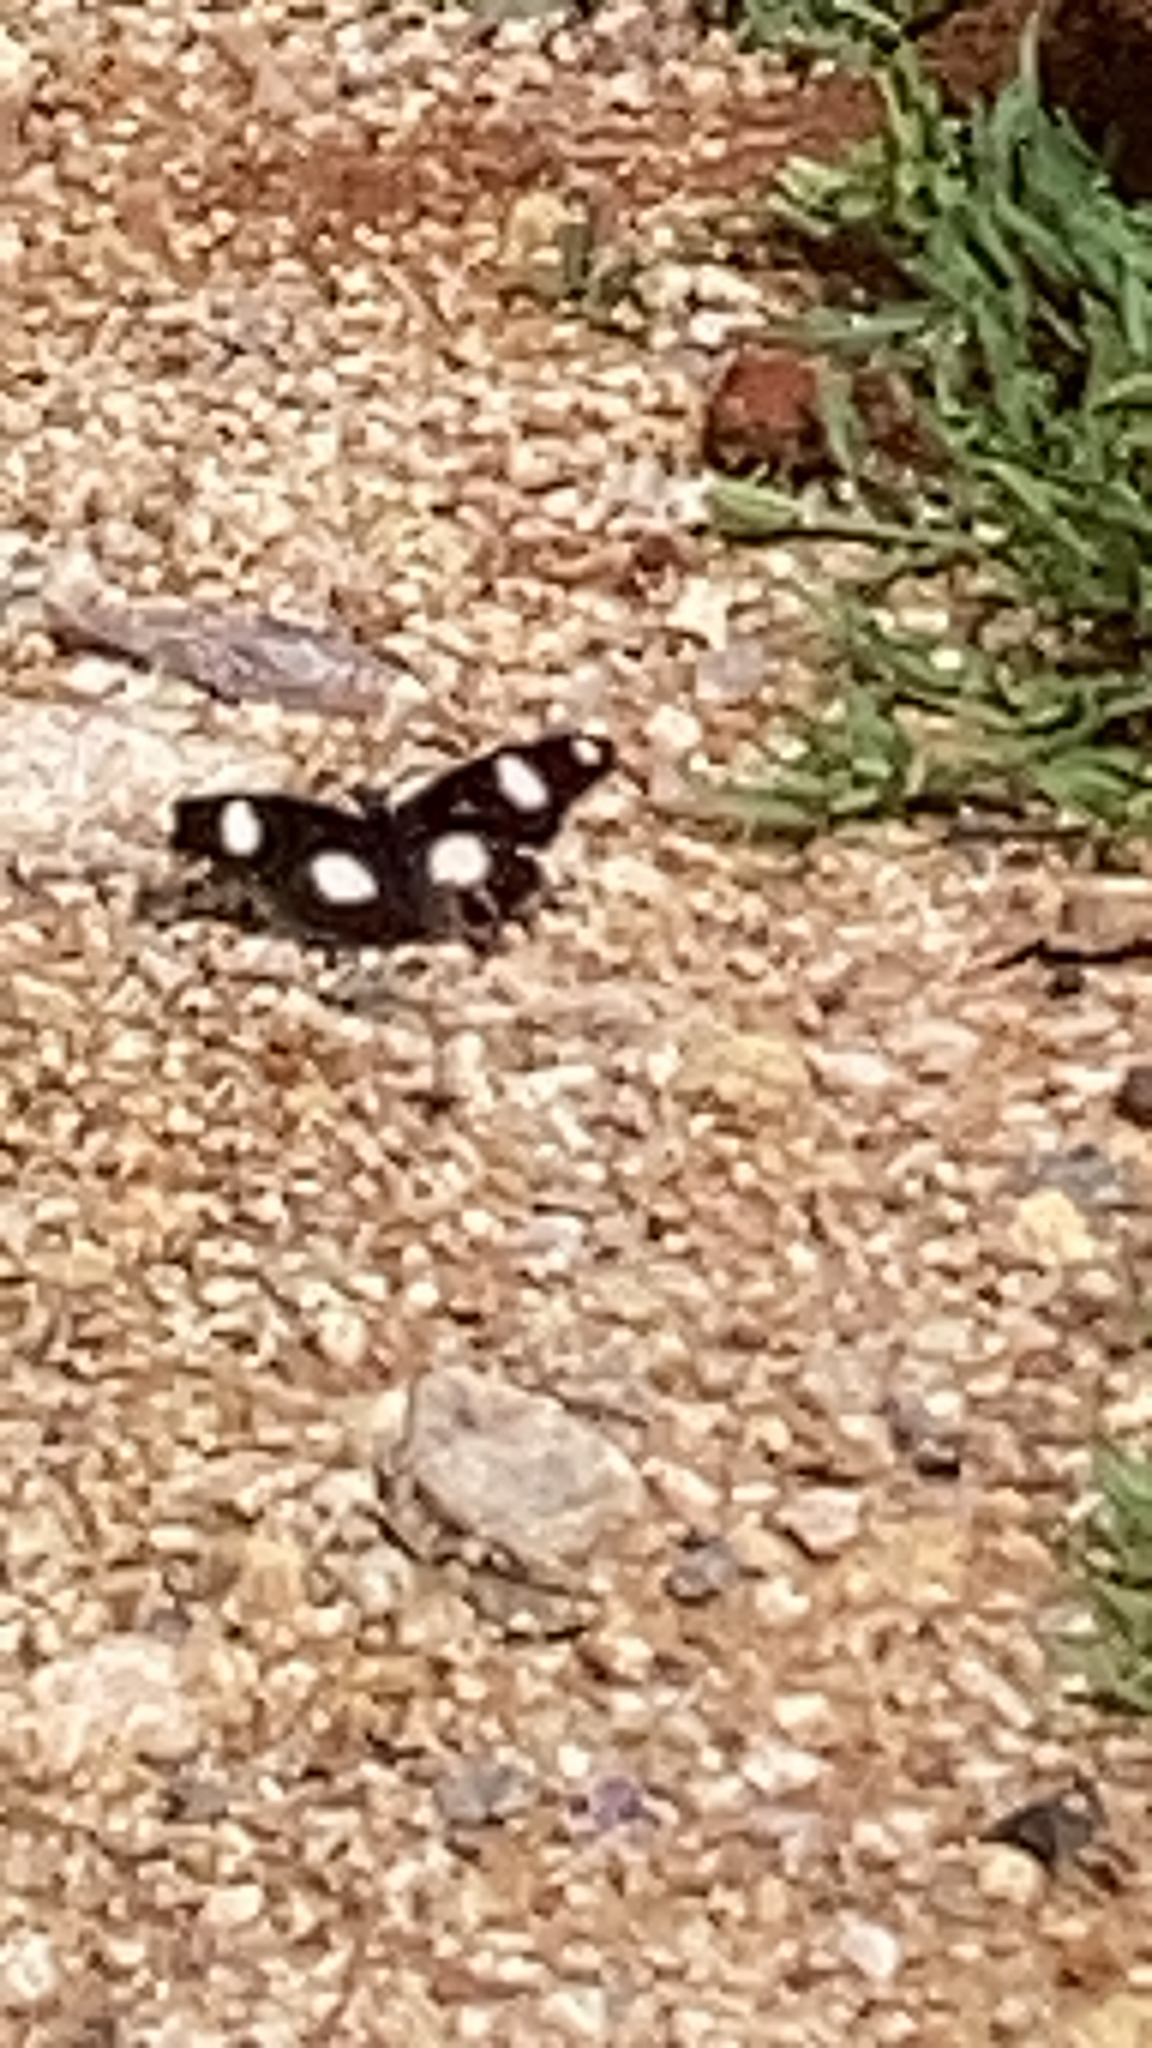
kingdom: Animalia
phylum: Arthropoda
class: Insecta
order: Lepidoptera
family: Nymphalidae
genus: Hypolimnas
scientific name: Hypolimnas misippus
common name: False plain tiger
